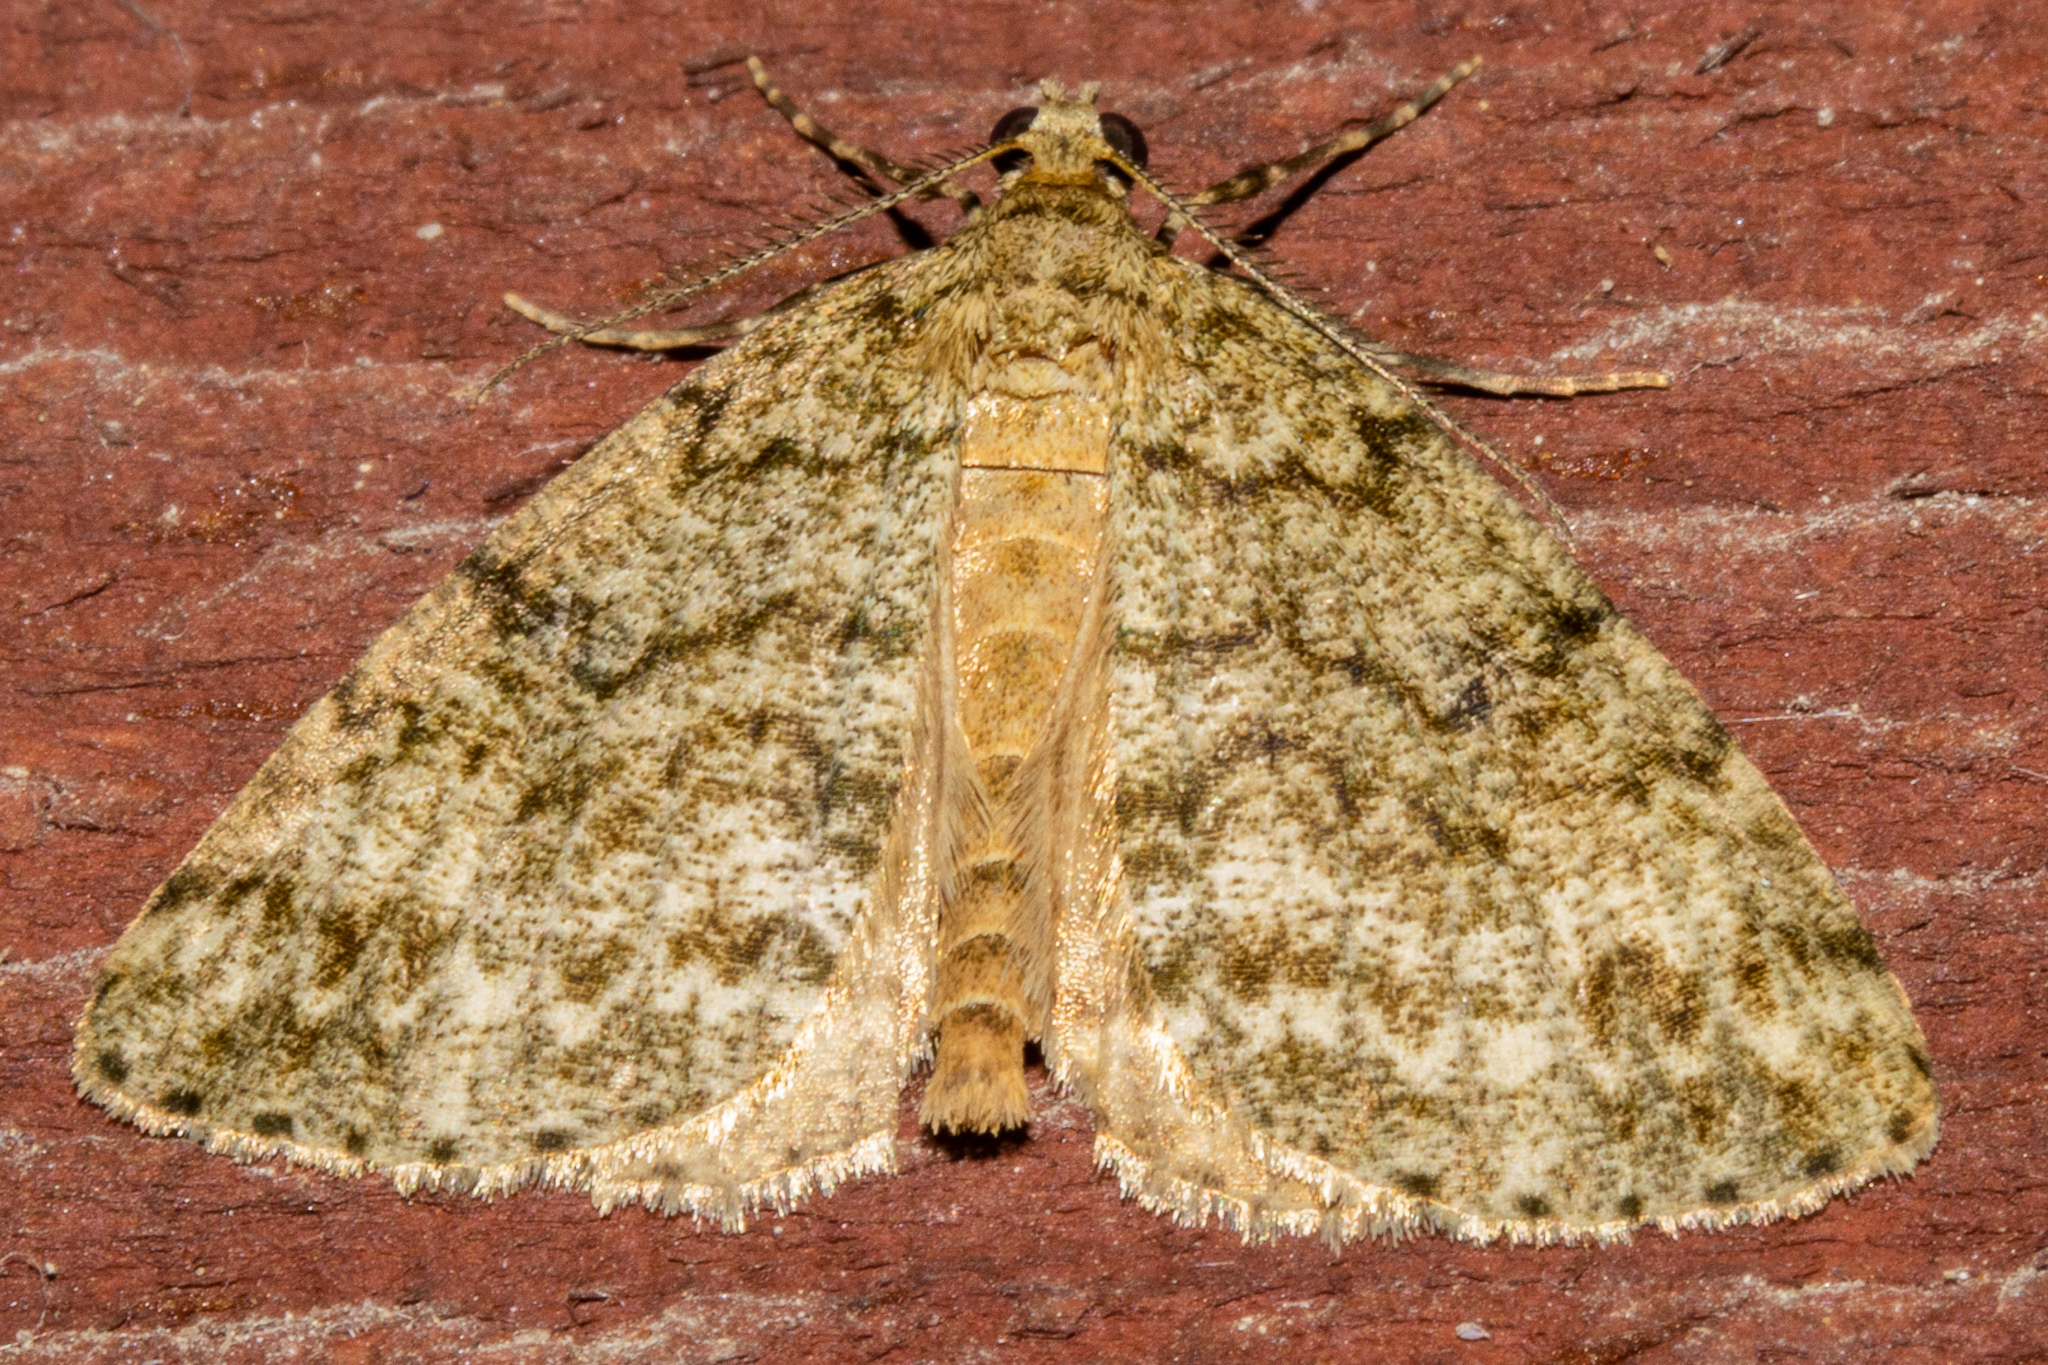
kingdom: Animalia
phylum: Arthropoda
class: Insecta
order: Lepidoptera
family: Geometridae
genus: Pseudocoremia
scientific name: Pseudocoremia indistincta
